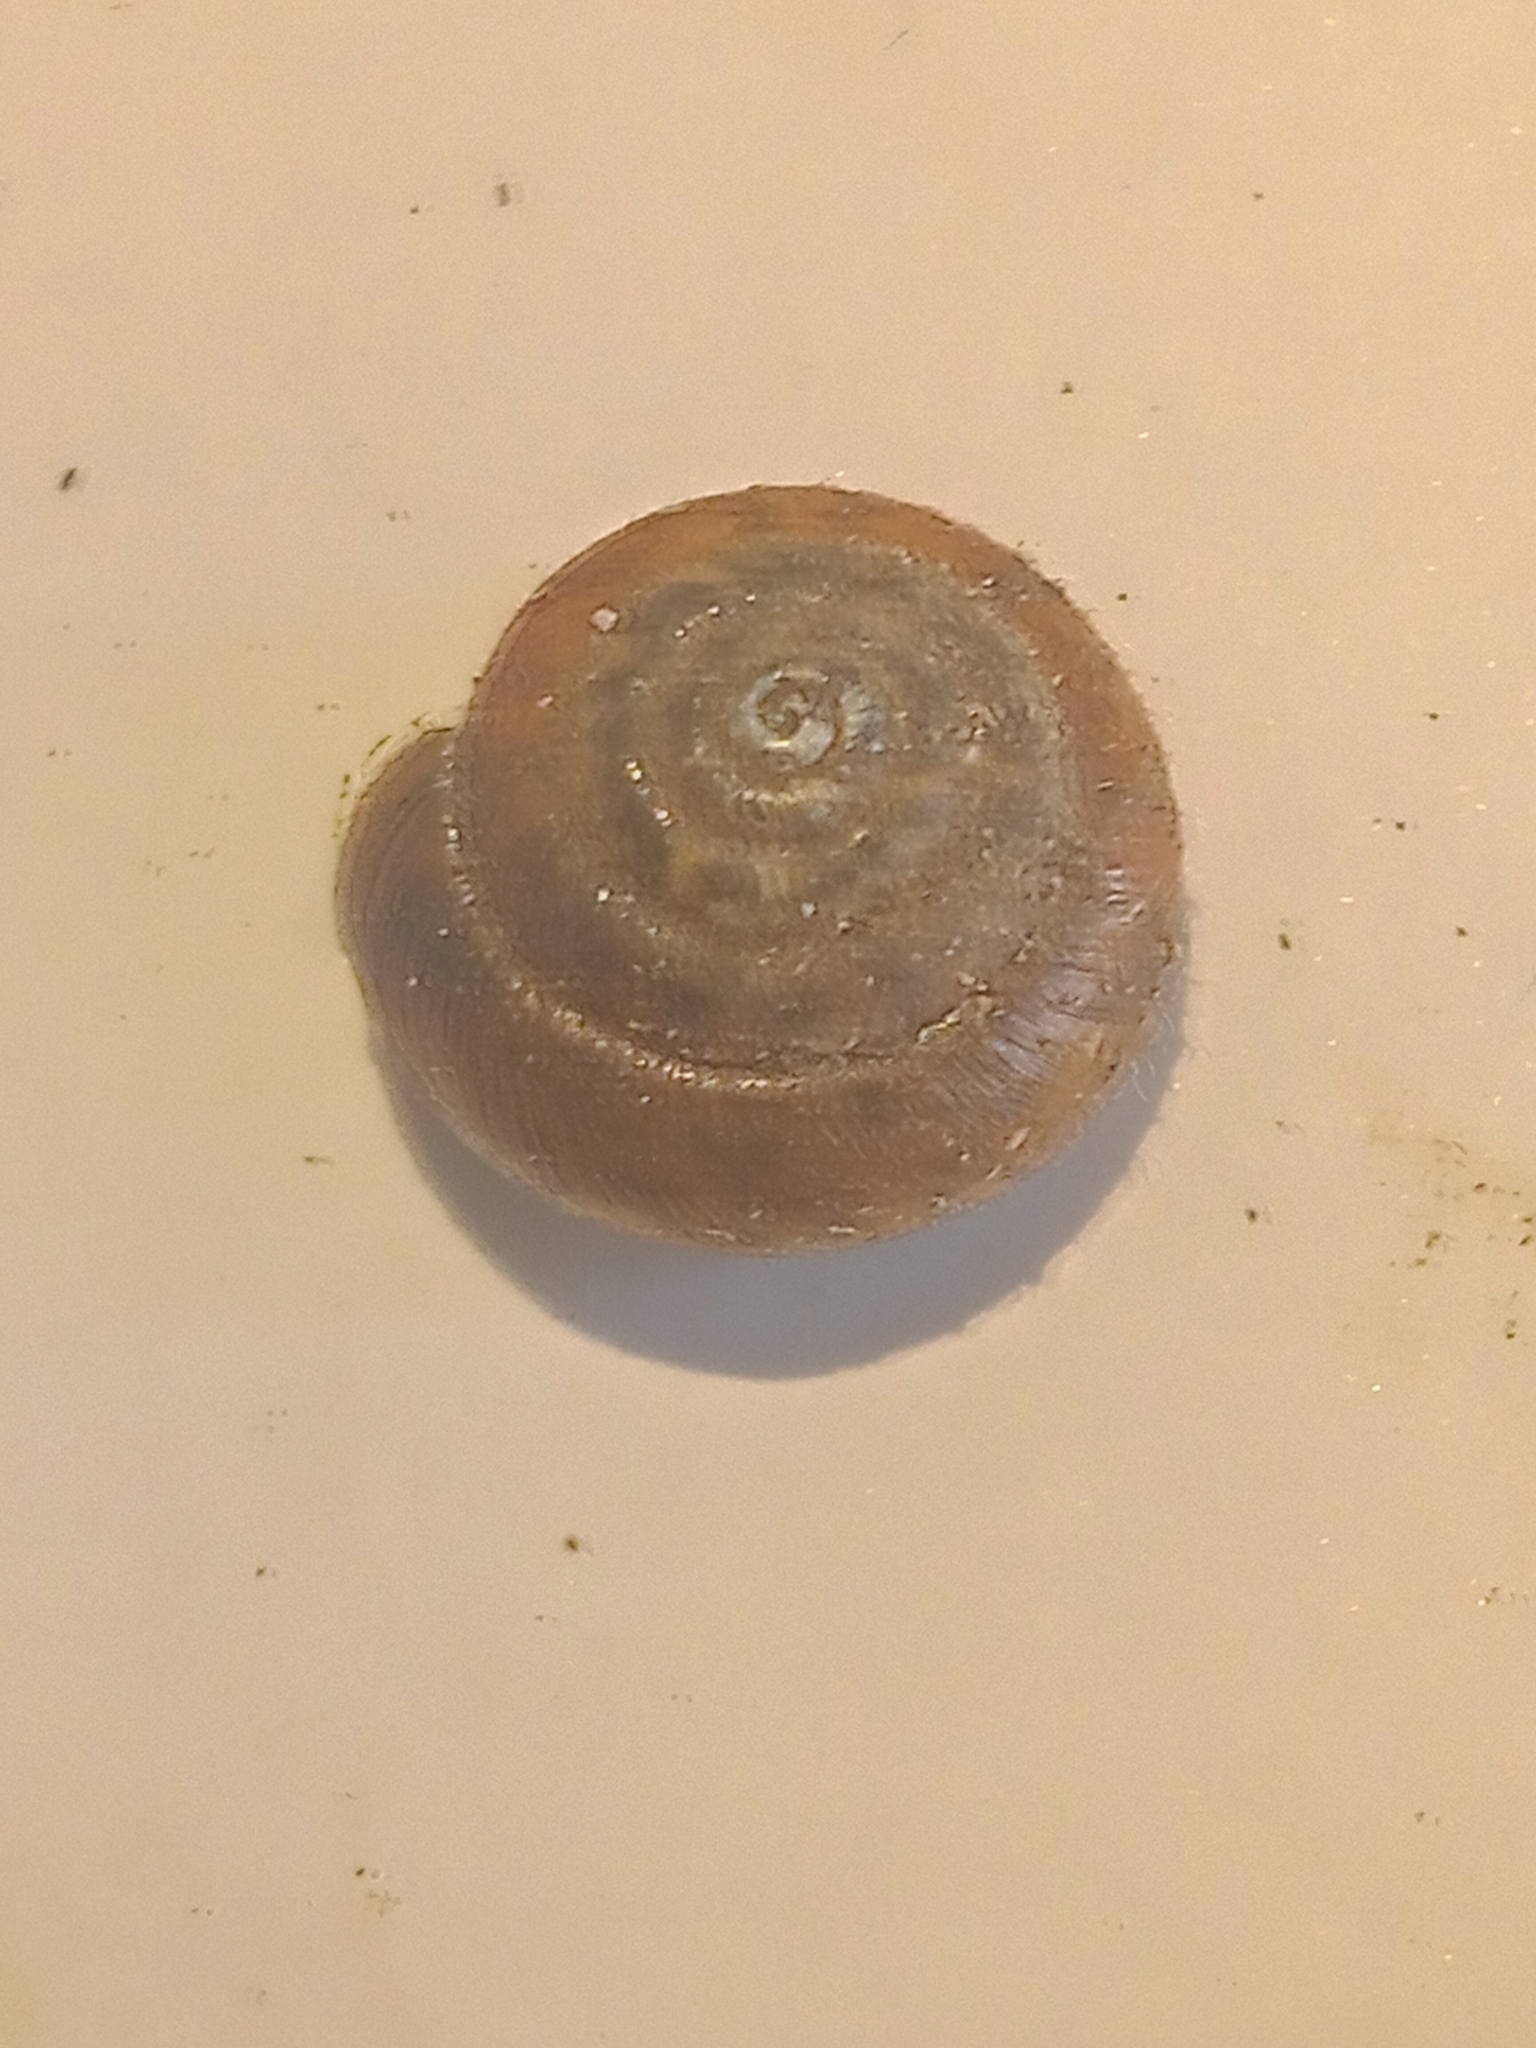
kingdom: Animalia
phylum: Mollusca
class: Gastropoda
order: Stylommatophora
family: Hygromiidae
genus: Trochulus
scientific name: Trochulus hispidus
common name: Hairy snail
